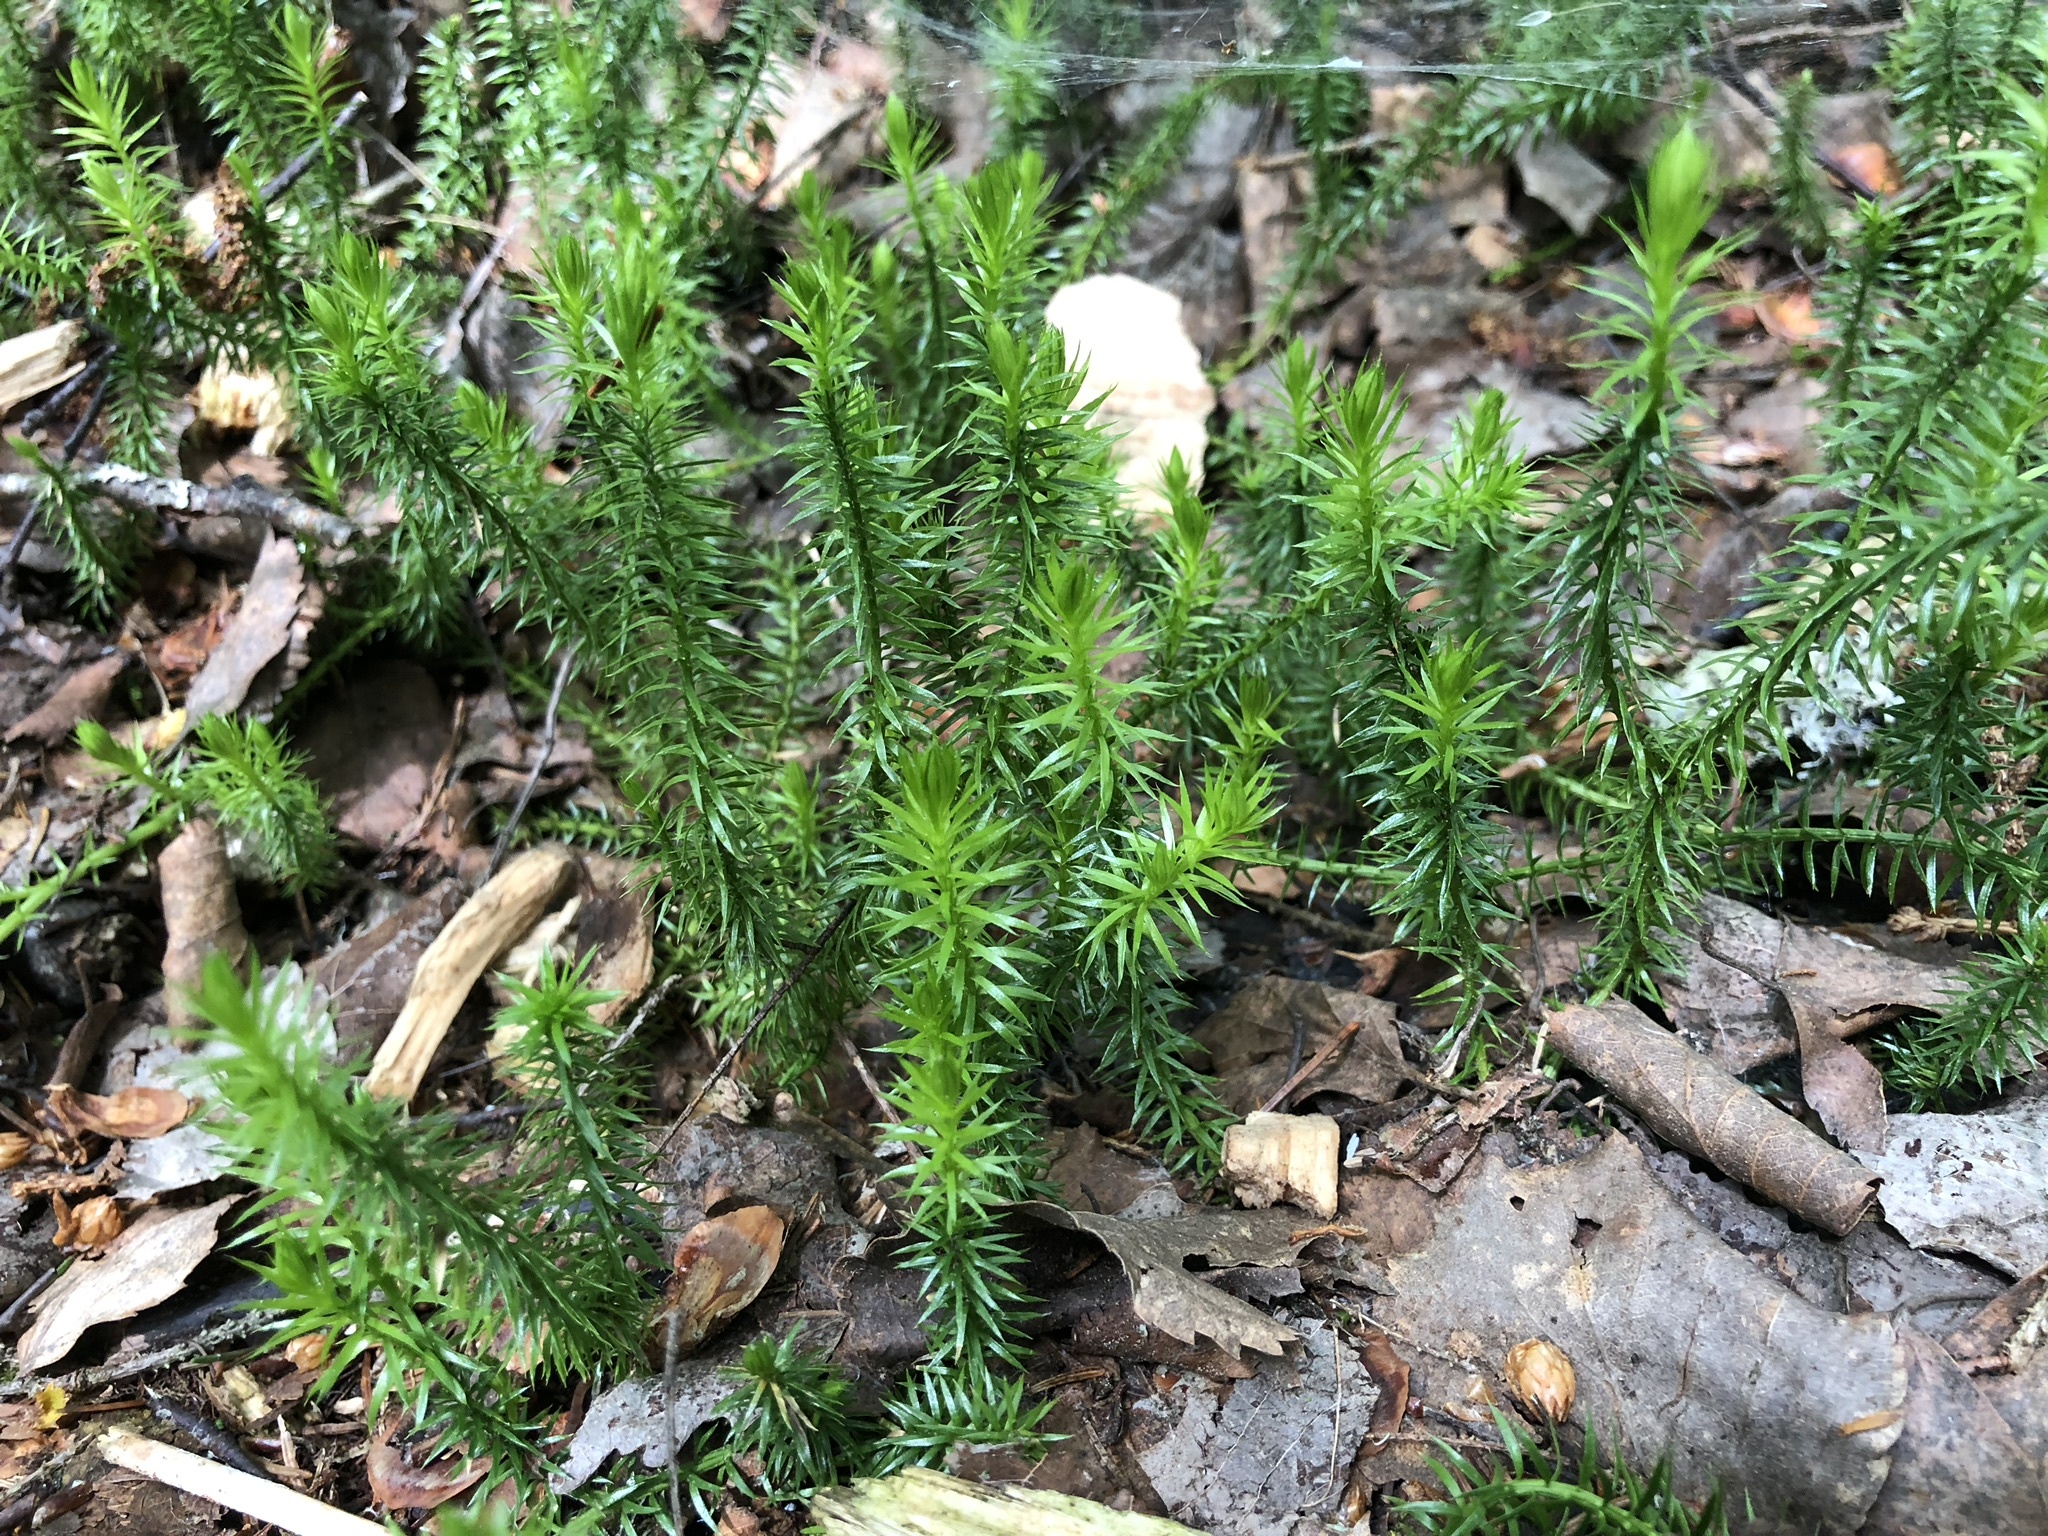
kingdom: Plantae
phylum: Tracheophyta
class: Lycopodiopsida
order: Lycopodiales
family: Lycopodiaceae
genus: Spinulum
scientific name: Spinulum annotinum
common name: Interrupted club-moss
